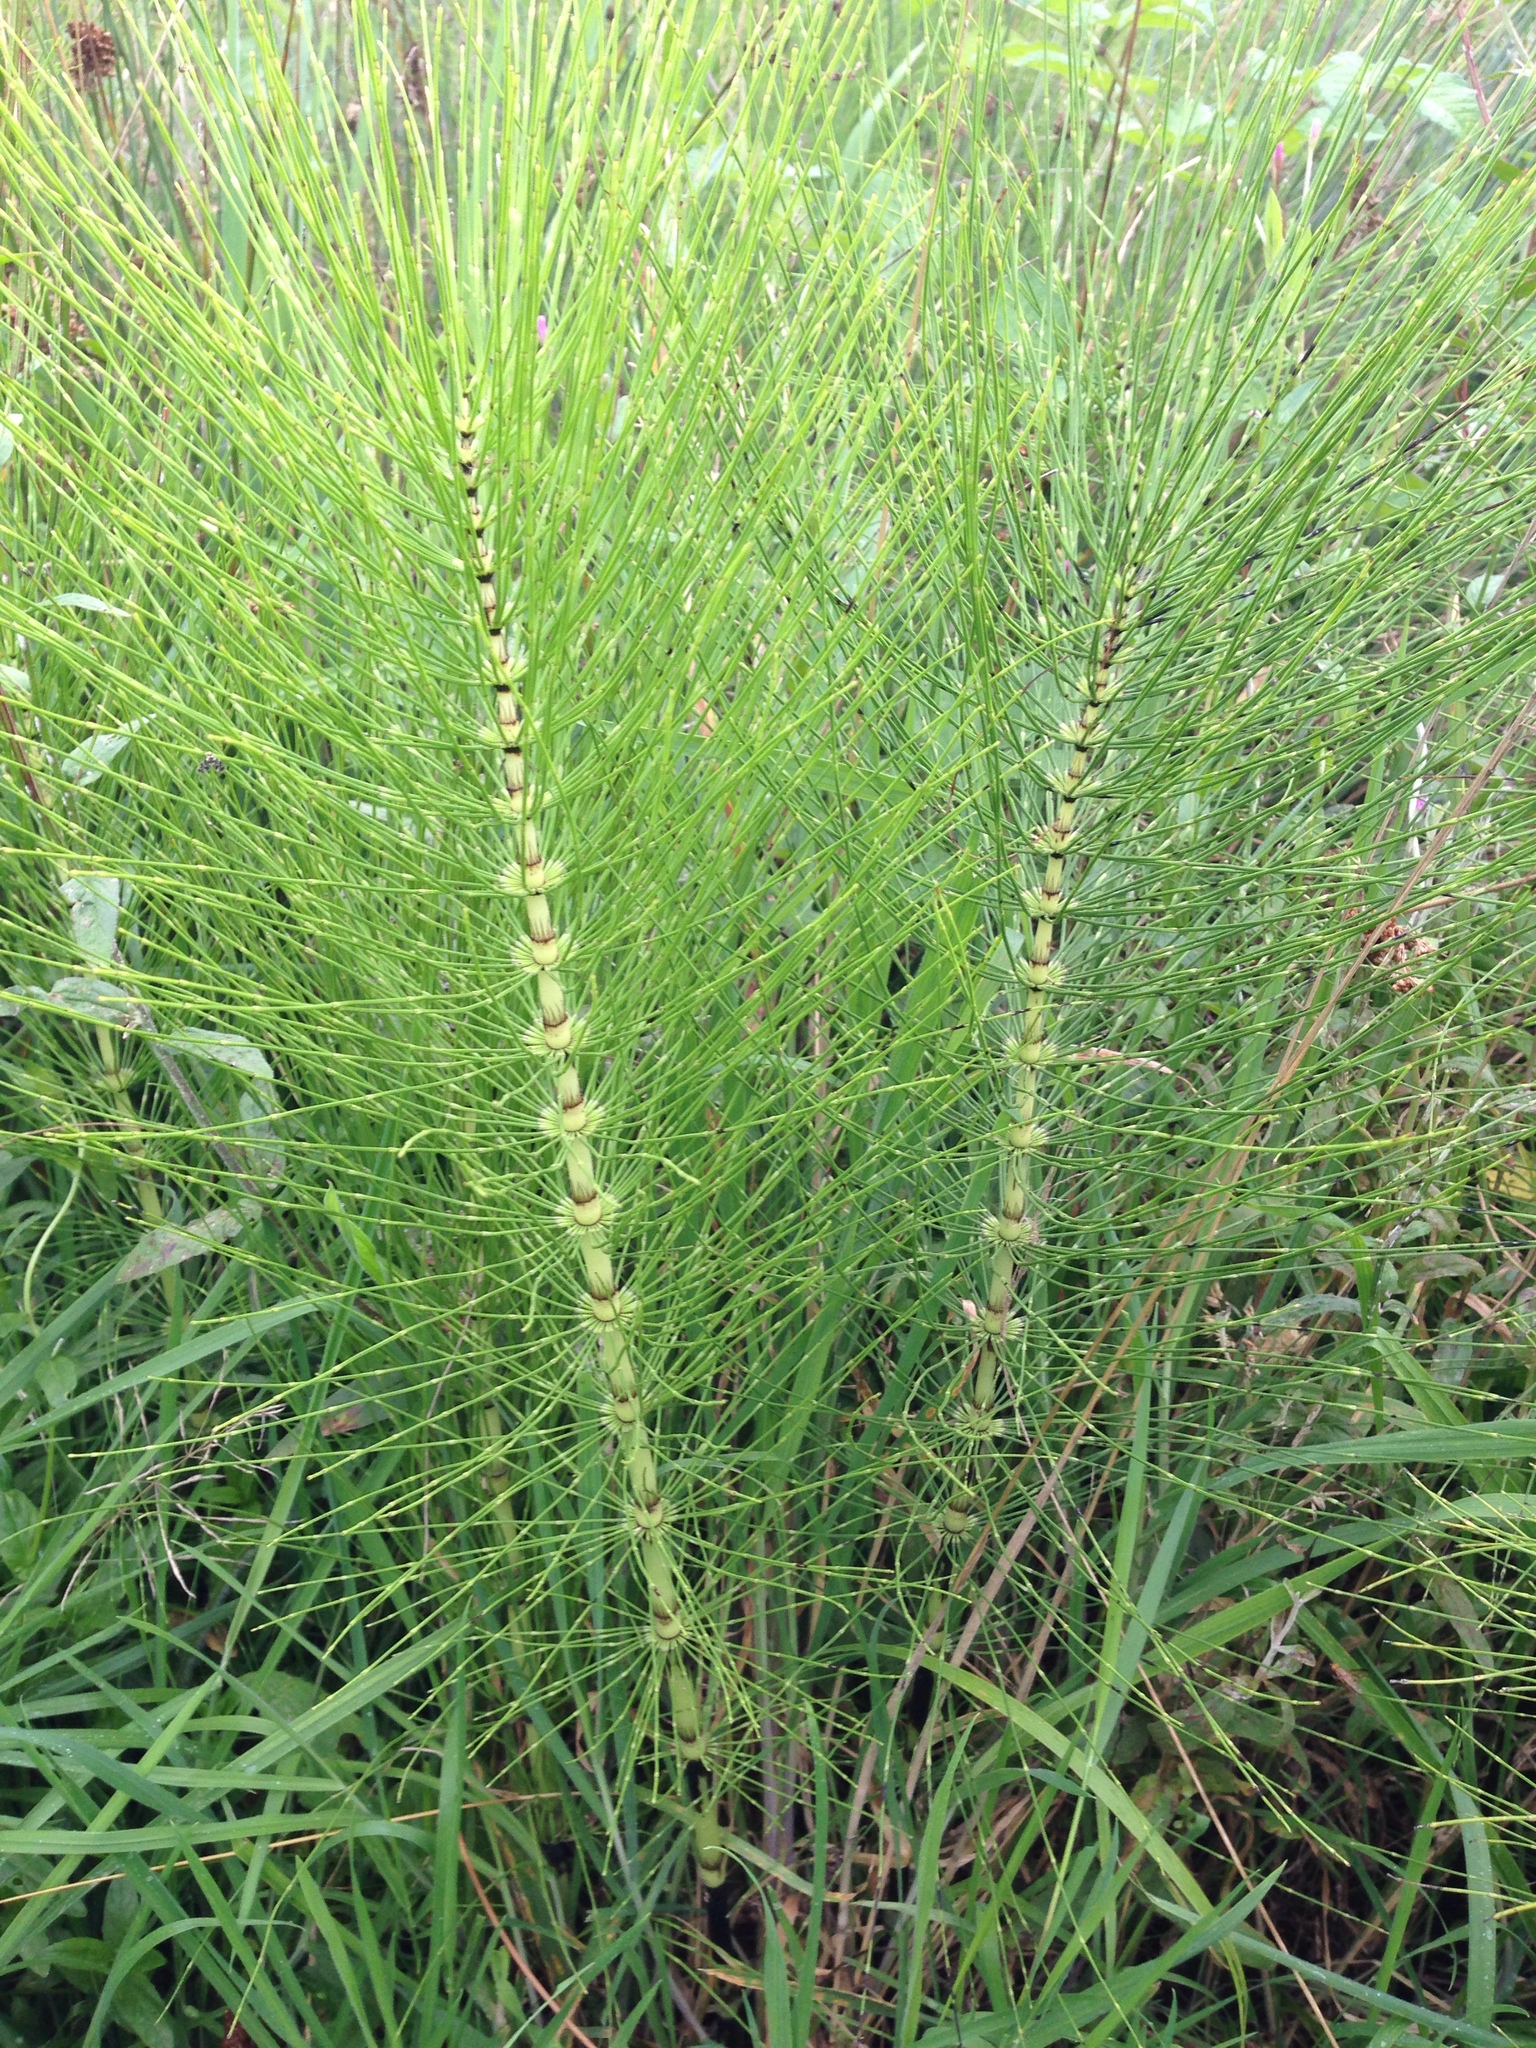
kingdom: Plantae
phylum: Tracheophyta
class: Polypodiopsida
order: Equisetales
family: Equisetaceae
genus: Equisetum
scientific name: Equisetum telmateia
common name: Great horsetail
